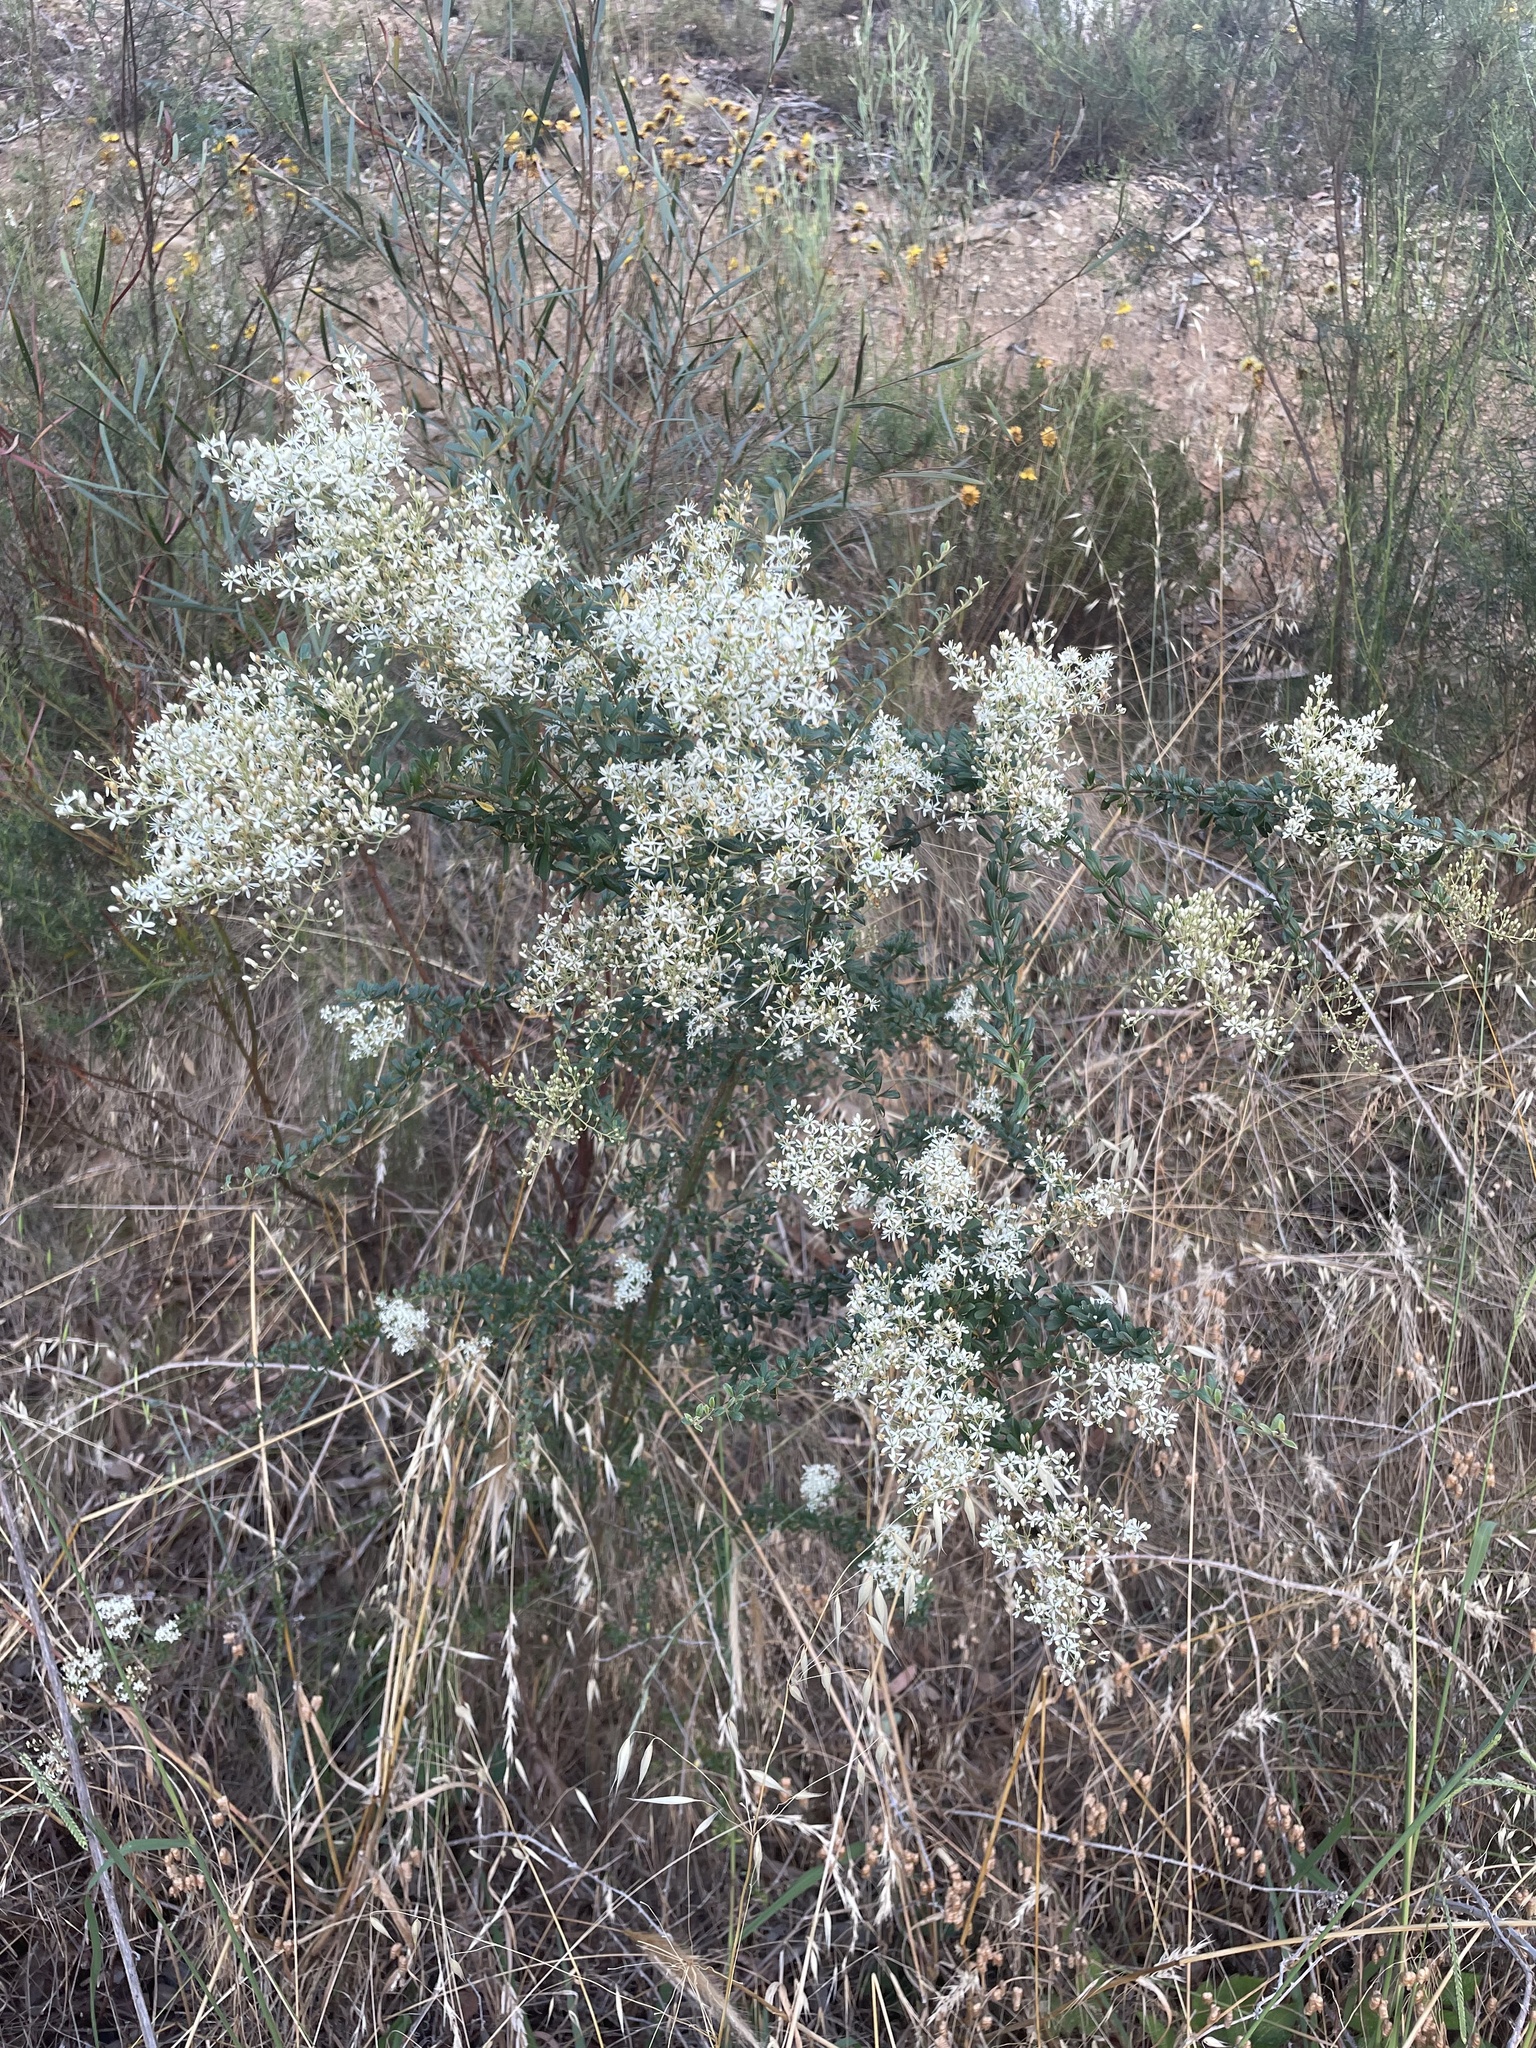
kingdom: Plantae
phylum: Tracheophyta
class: Magnoliopsida
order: Apiales
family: Pittosporaceae
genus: Bursaria
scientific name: Bursaria spinosa
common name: Australian blackthorn
